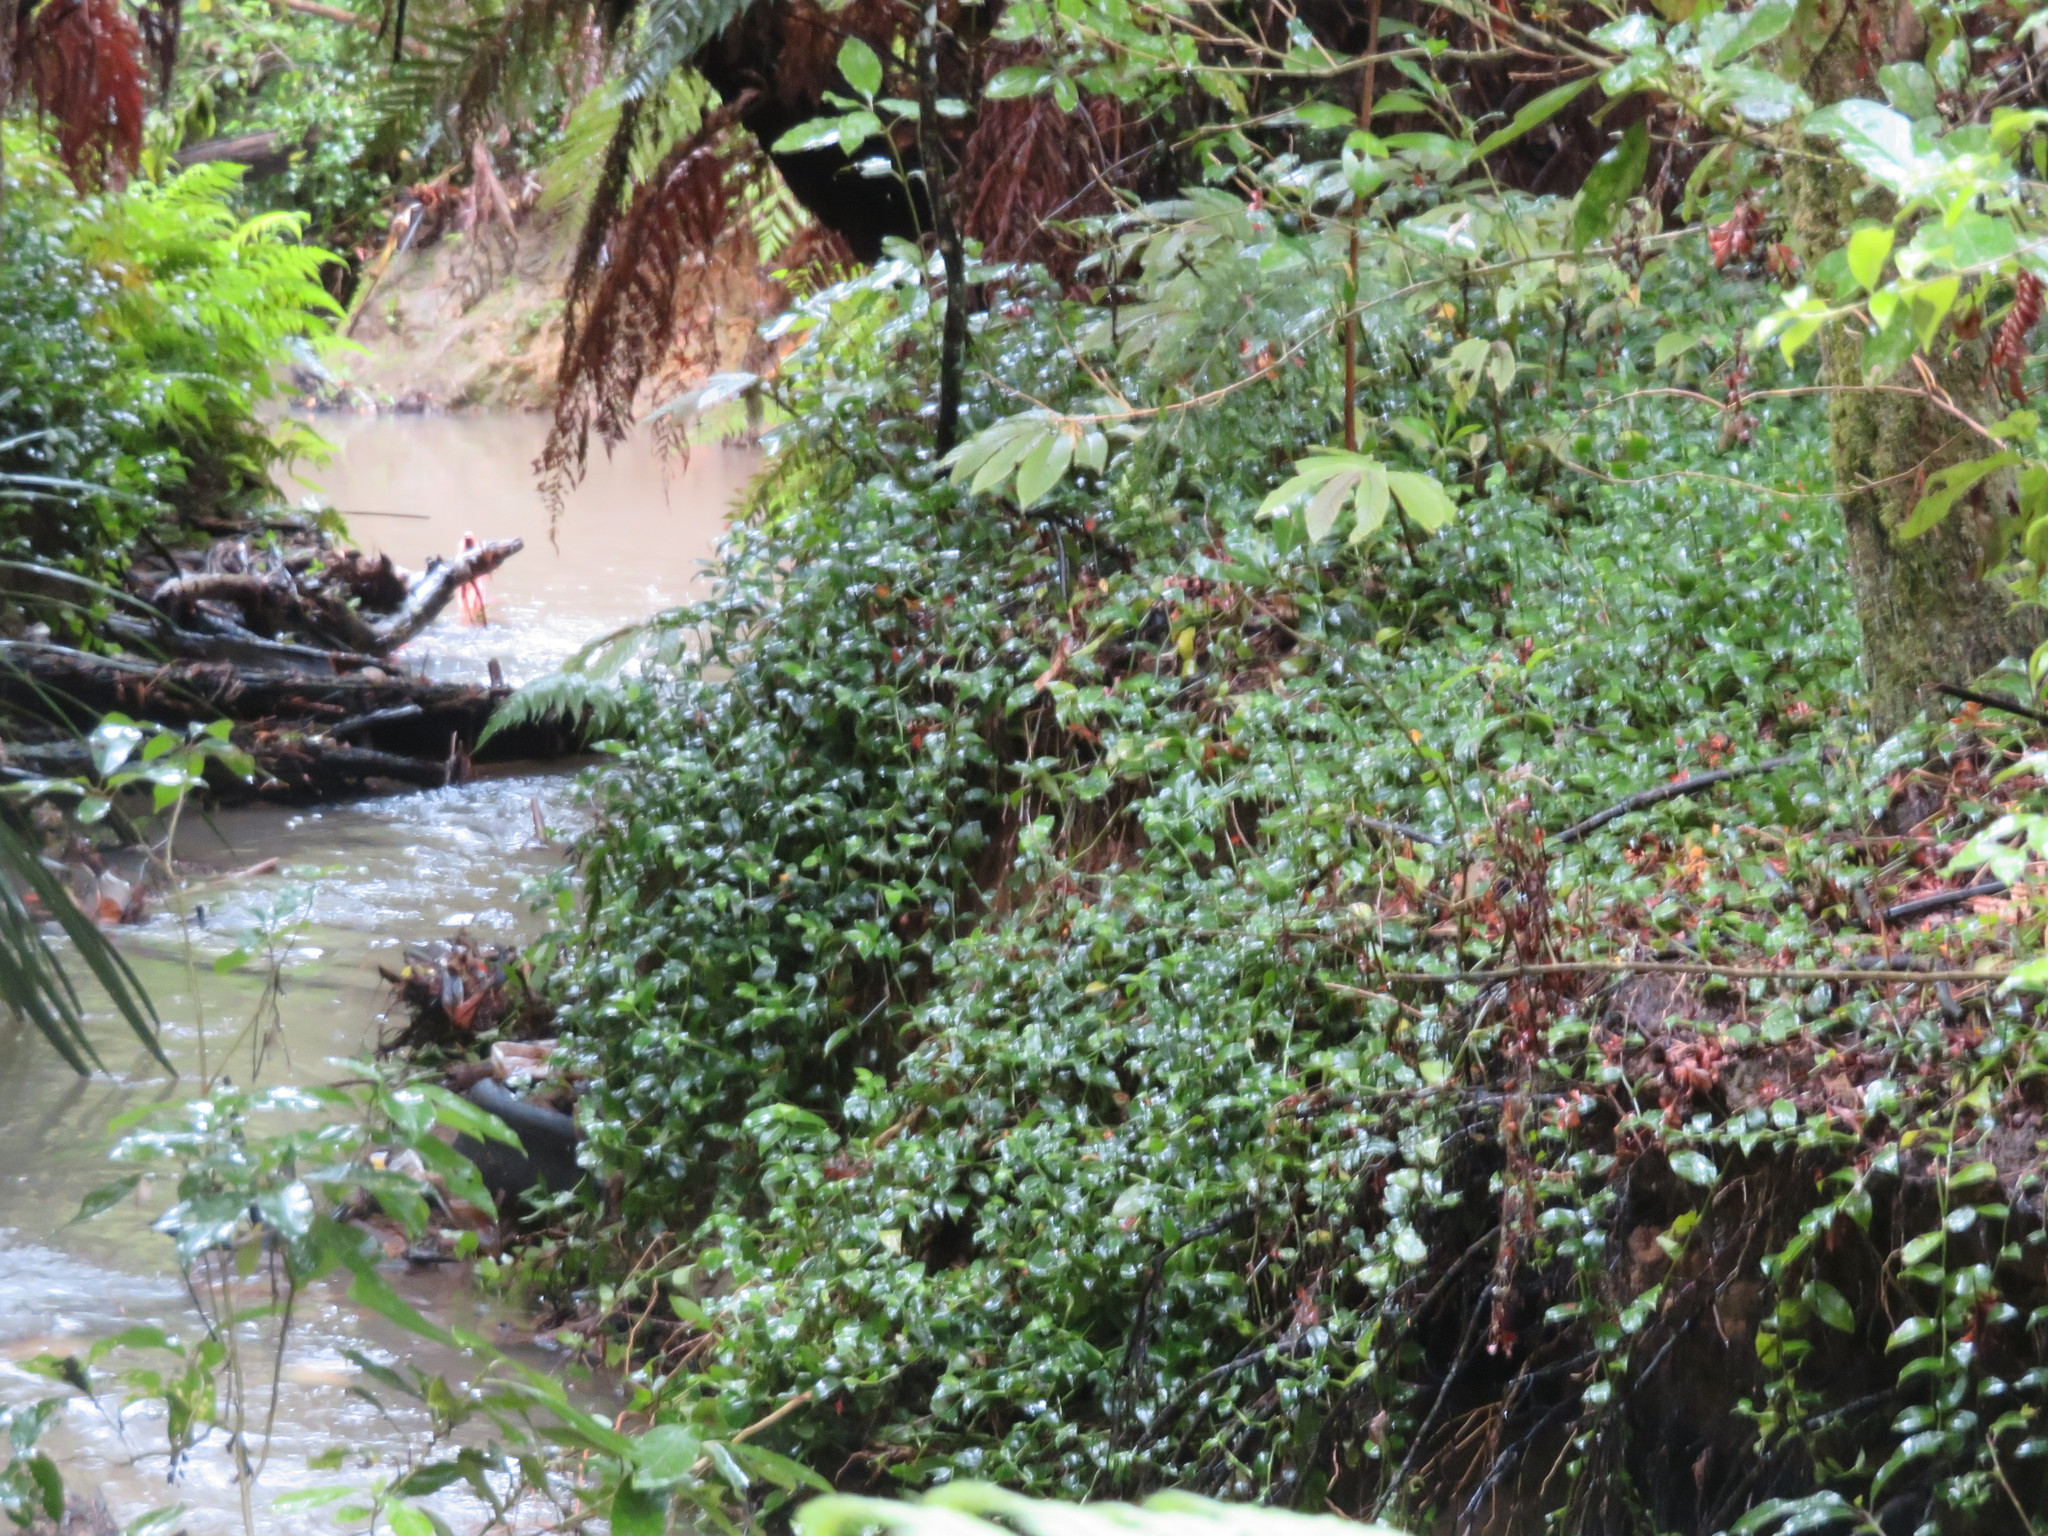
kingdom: Plantae
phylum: Tracheophyta
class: Magnoliopsida
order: Apiales
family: Araliaceae
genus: Schefflera
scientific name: Schefflera digitata
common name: Pate
